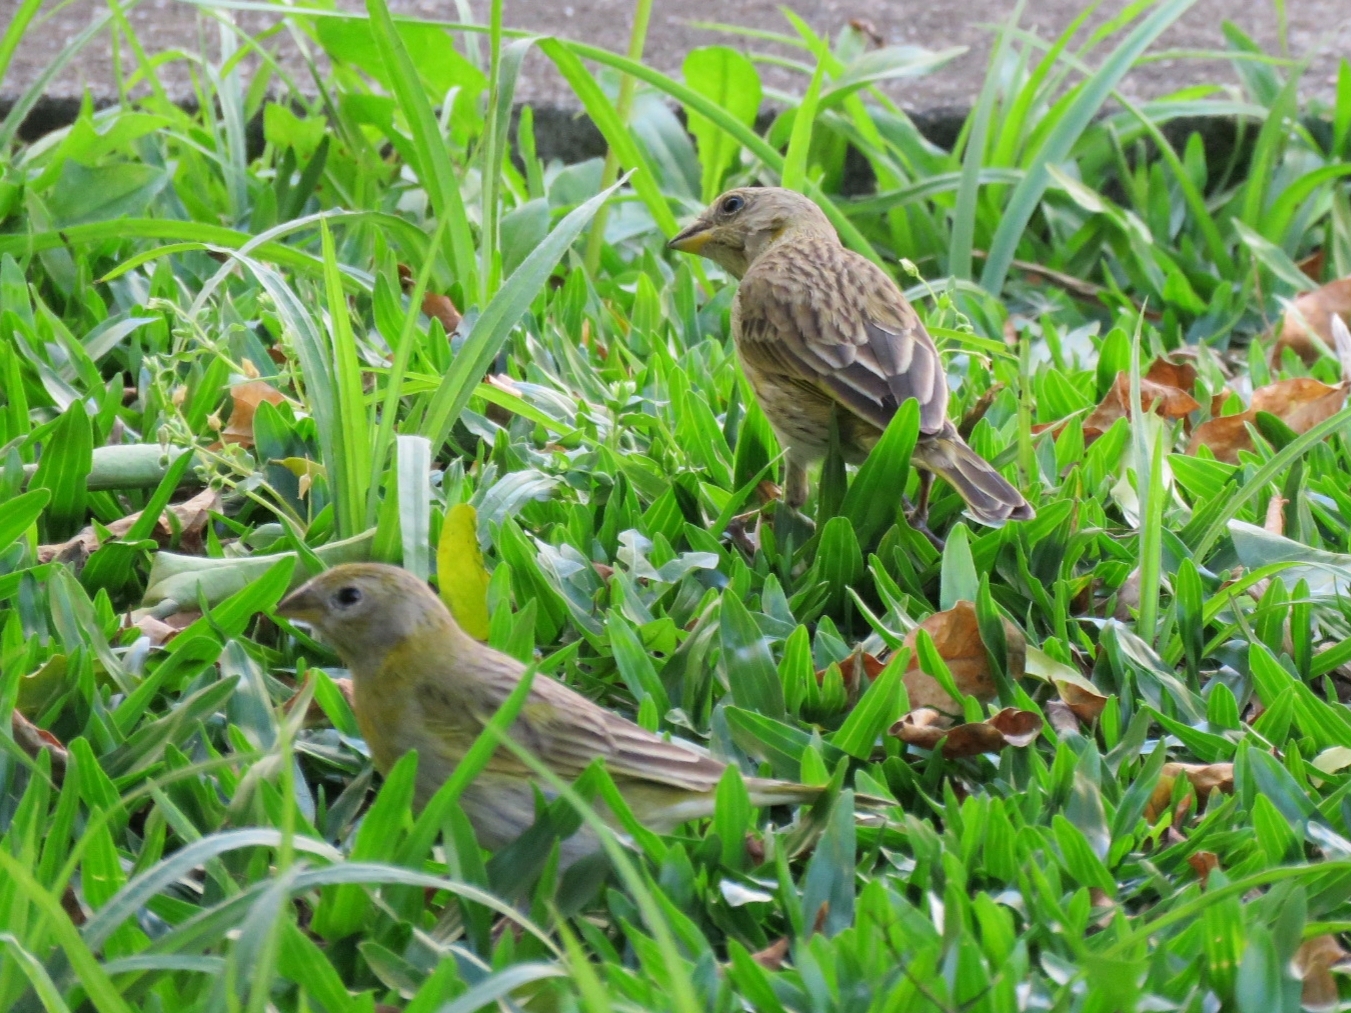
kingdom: Animalia
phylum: Chordata
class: Aves
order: Passeriformes
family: Thraupidae
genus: Sicalis
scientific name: Sicalis flaveola
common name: Saffron finch
